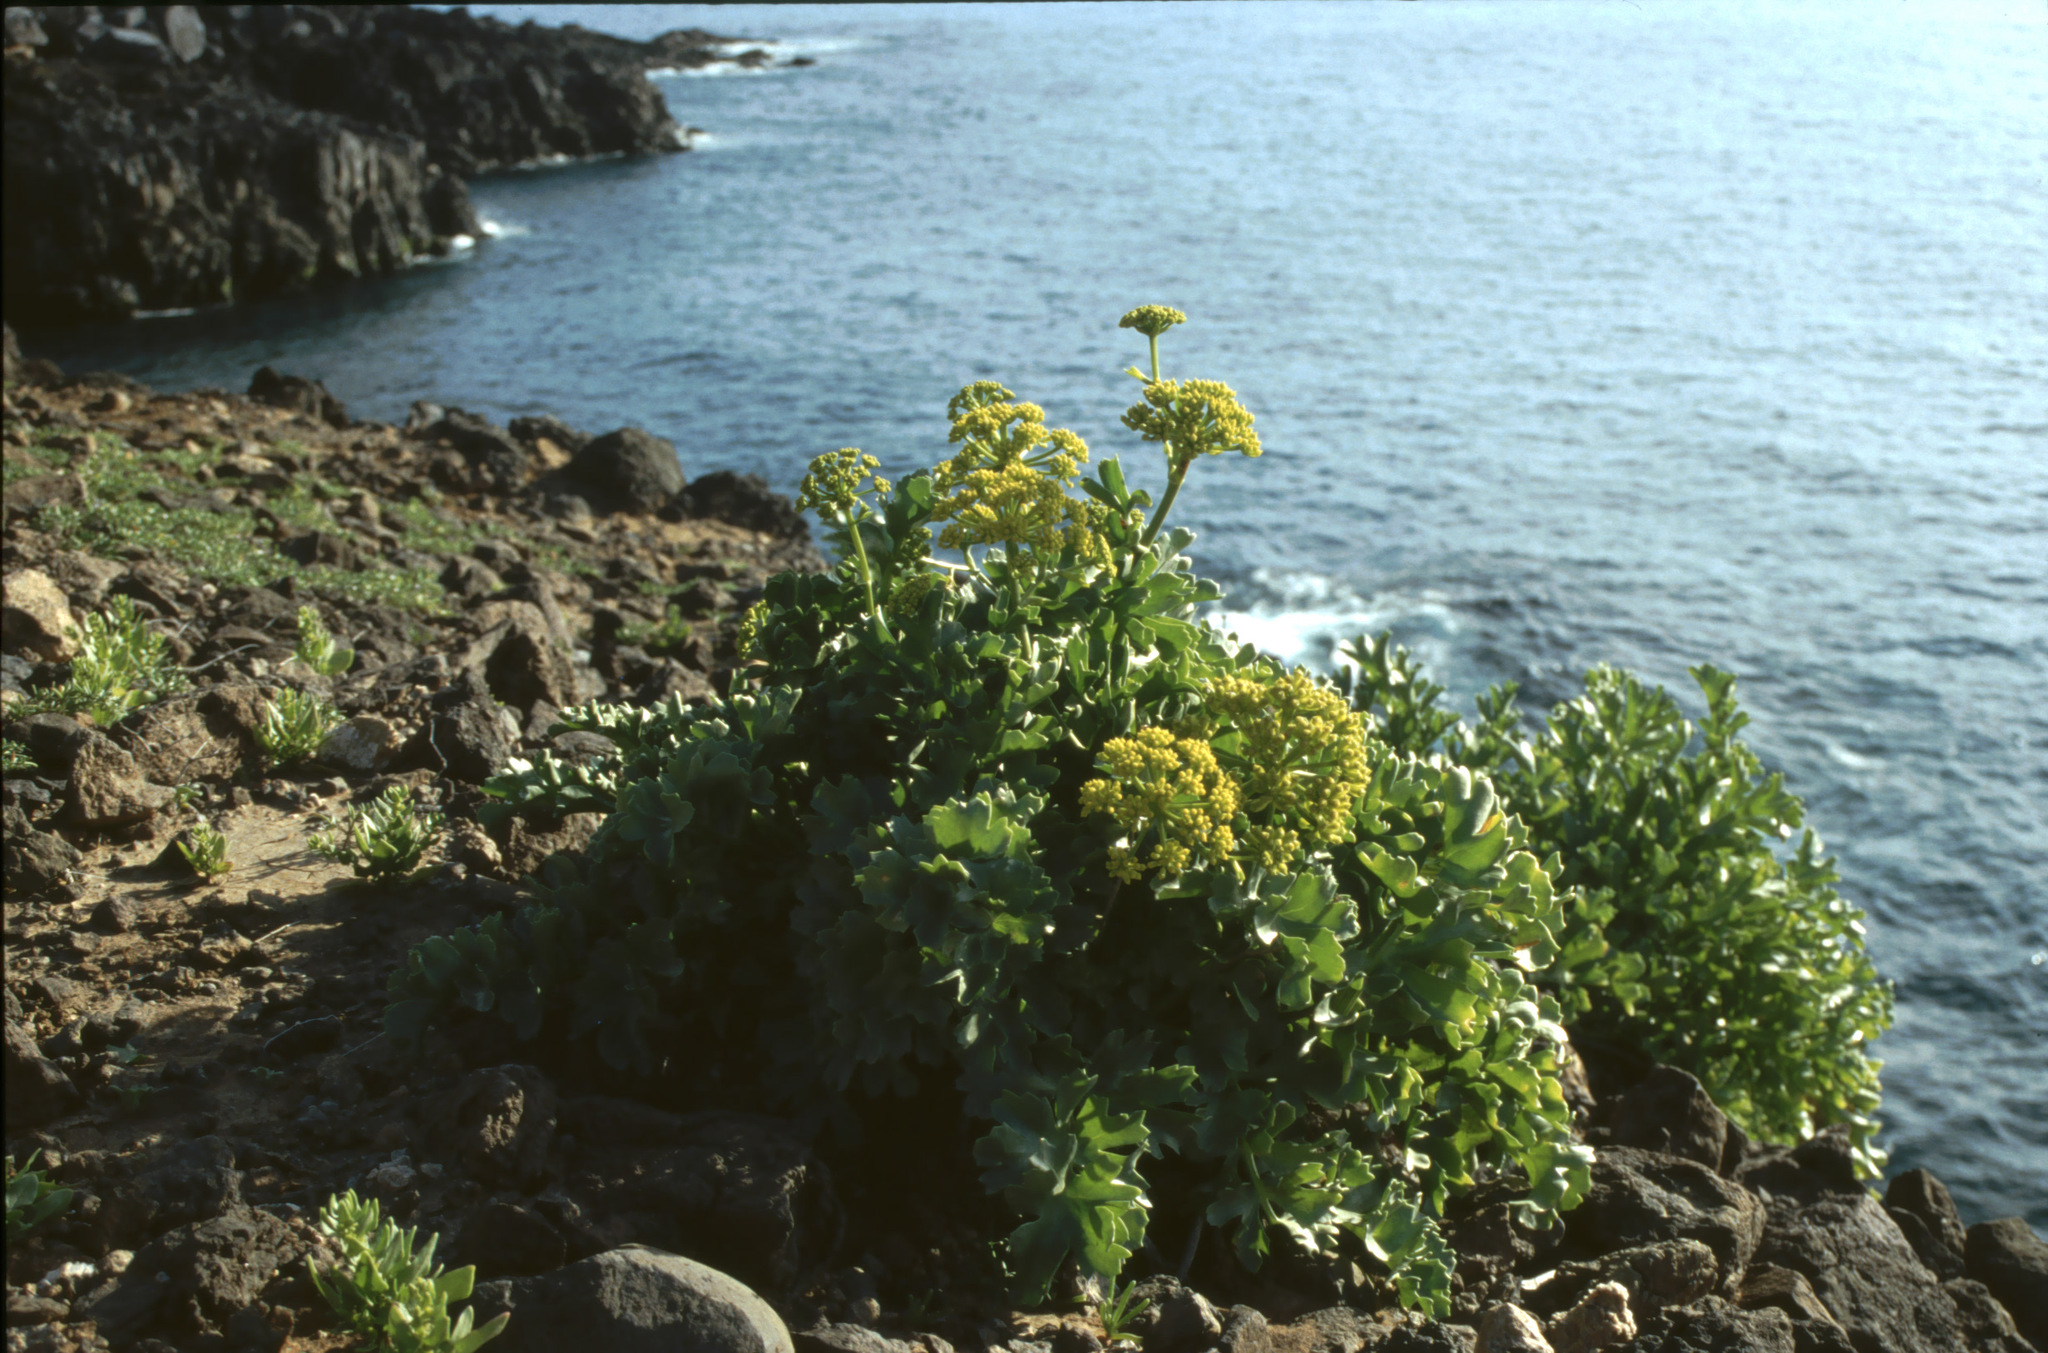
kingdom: Plantae
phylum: Tracheophyta
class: Magnoliopsida
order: Apiales
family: Apiaceae
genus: Astydamia
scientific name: Astydamia latifolia
